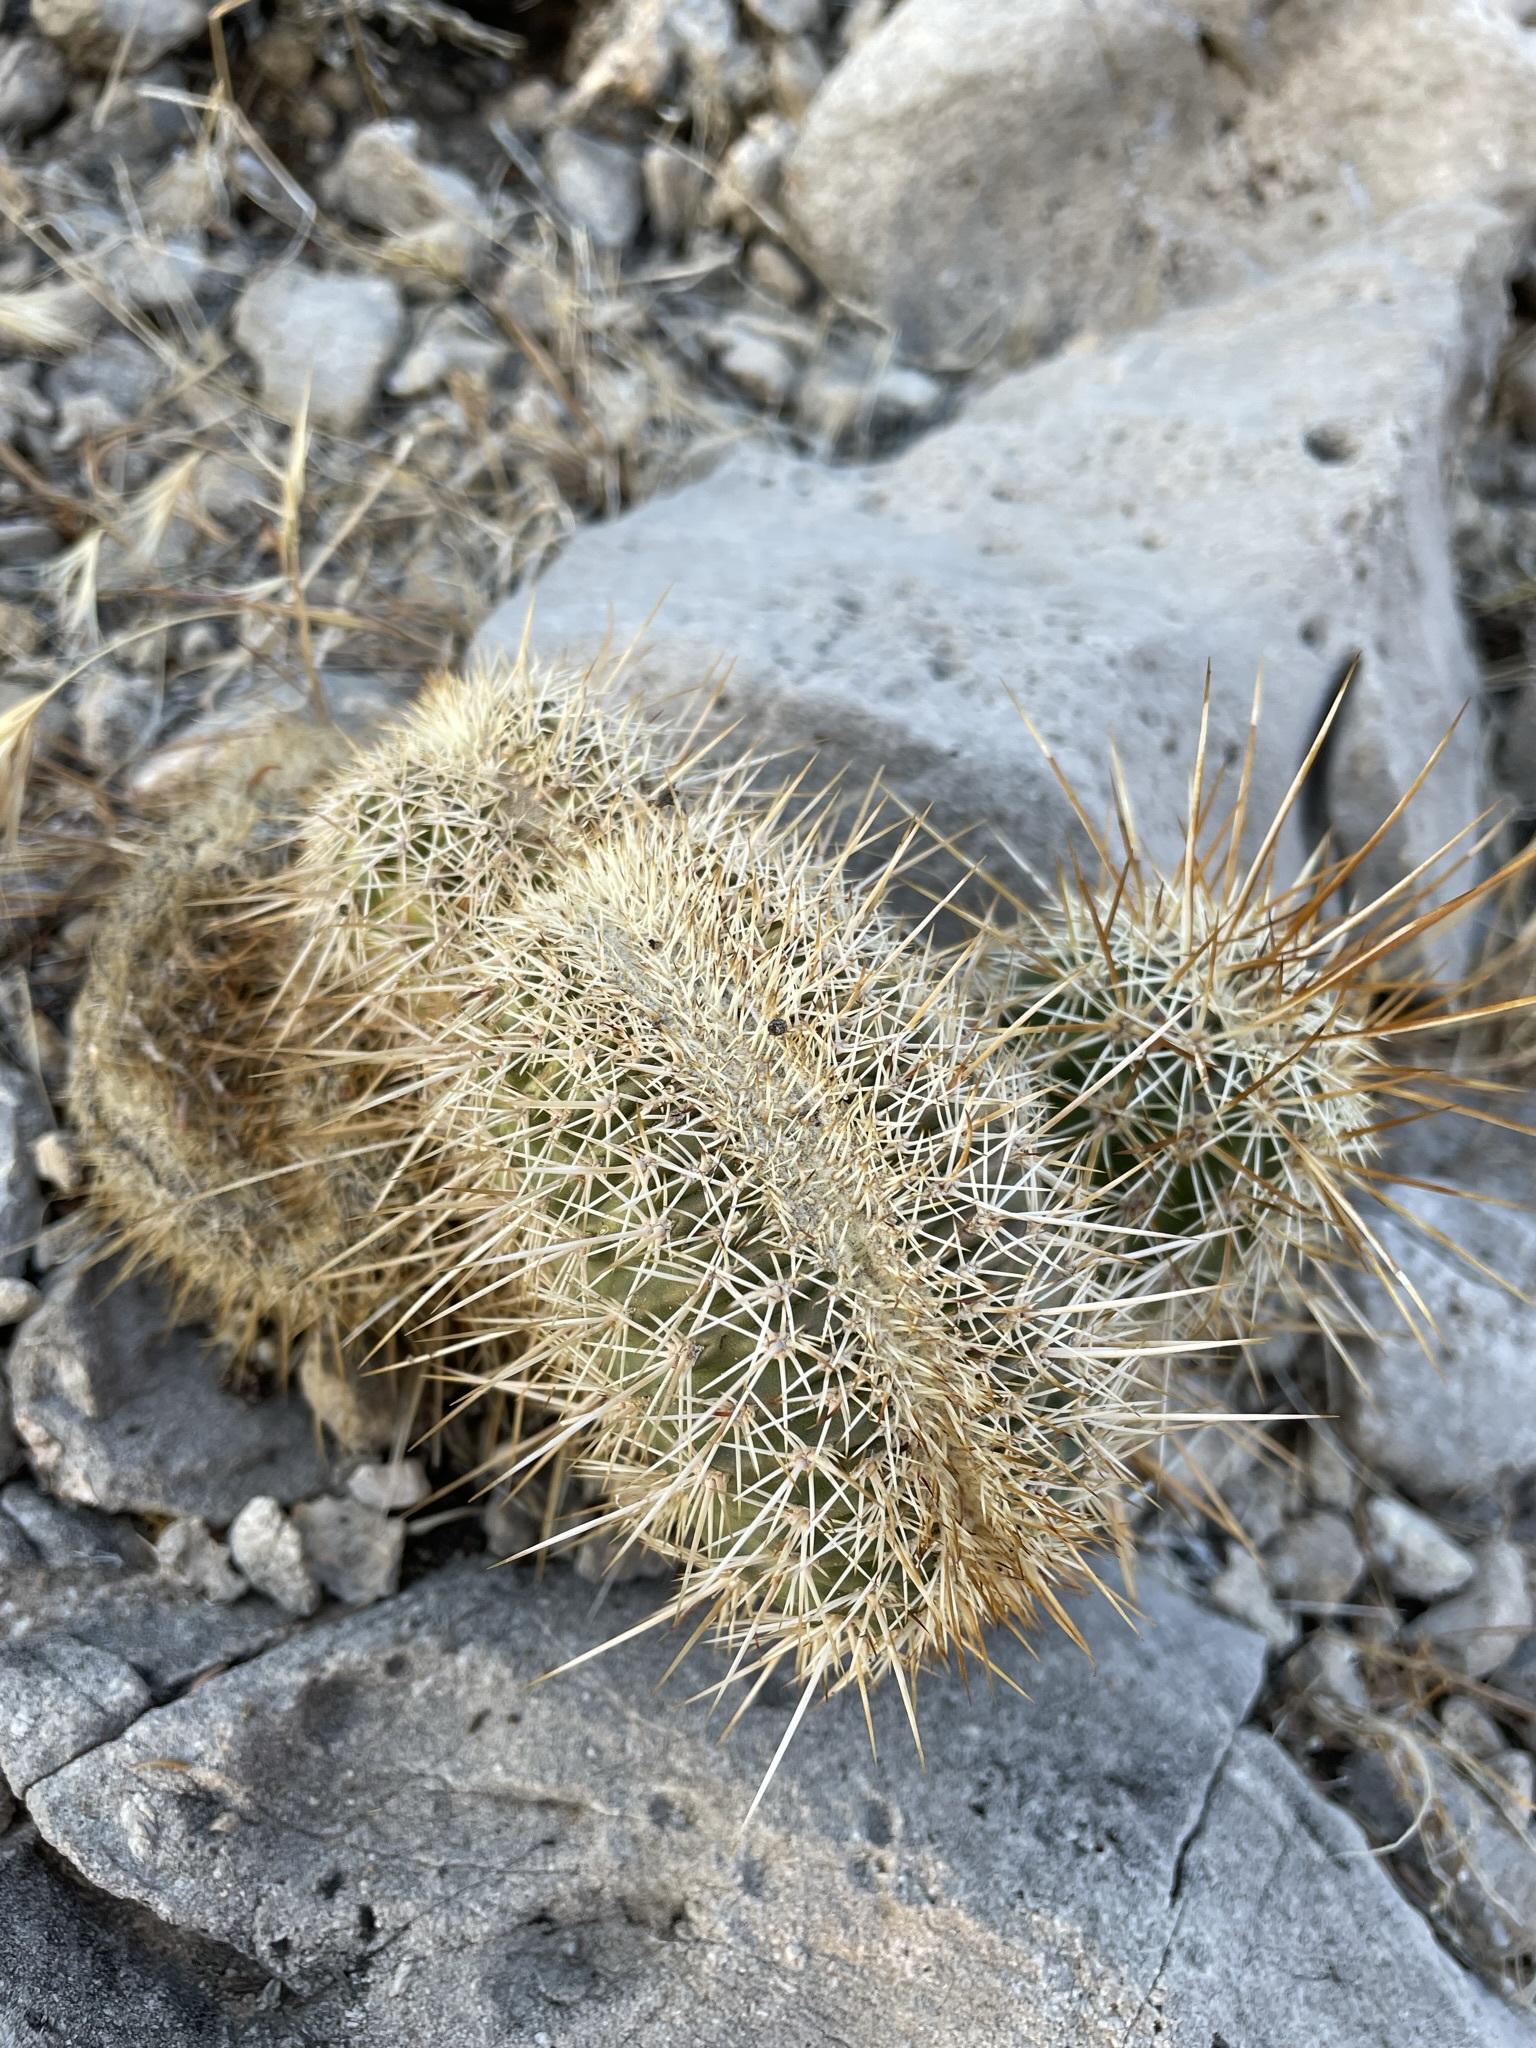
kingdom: Plantae
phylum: Tracheophyta
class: Magnoliopsida
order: Caryophyllales
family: Cactaceae
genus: Echinocereus
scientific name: Echinocereus engelmannii
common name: Engelmann's hedgehog cactus
